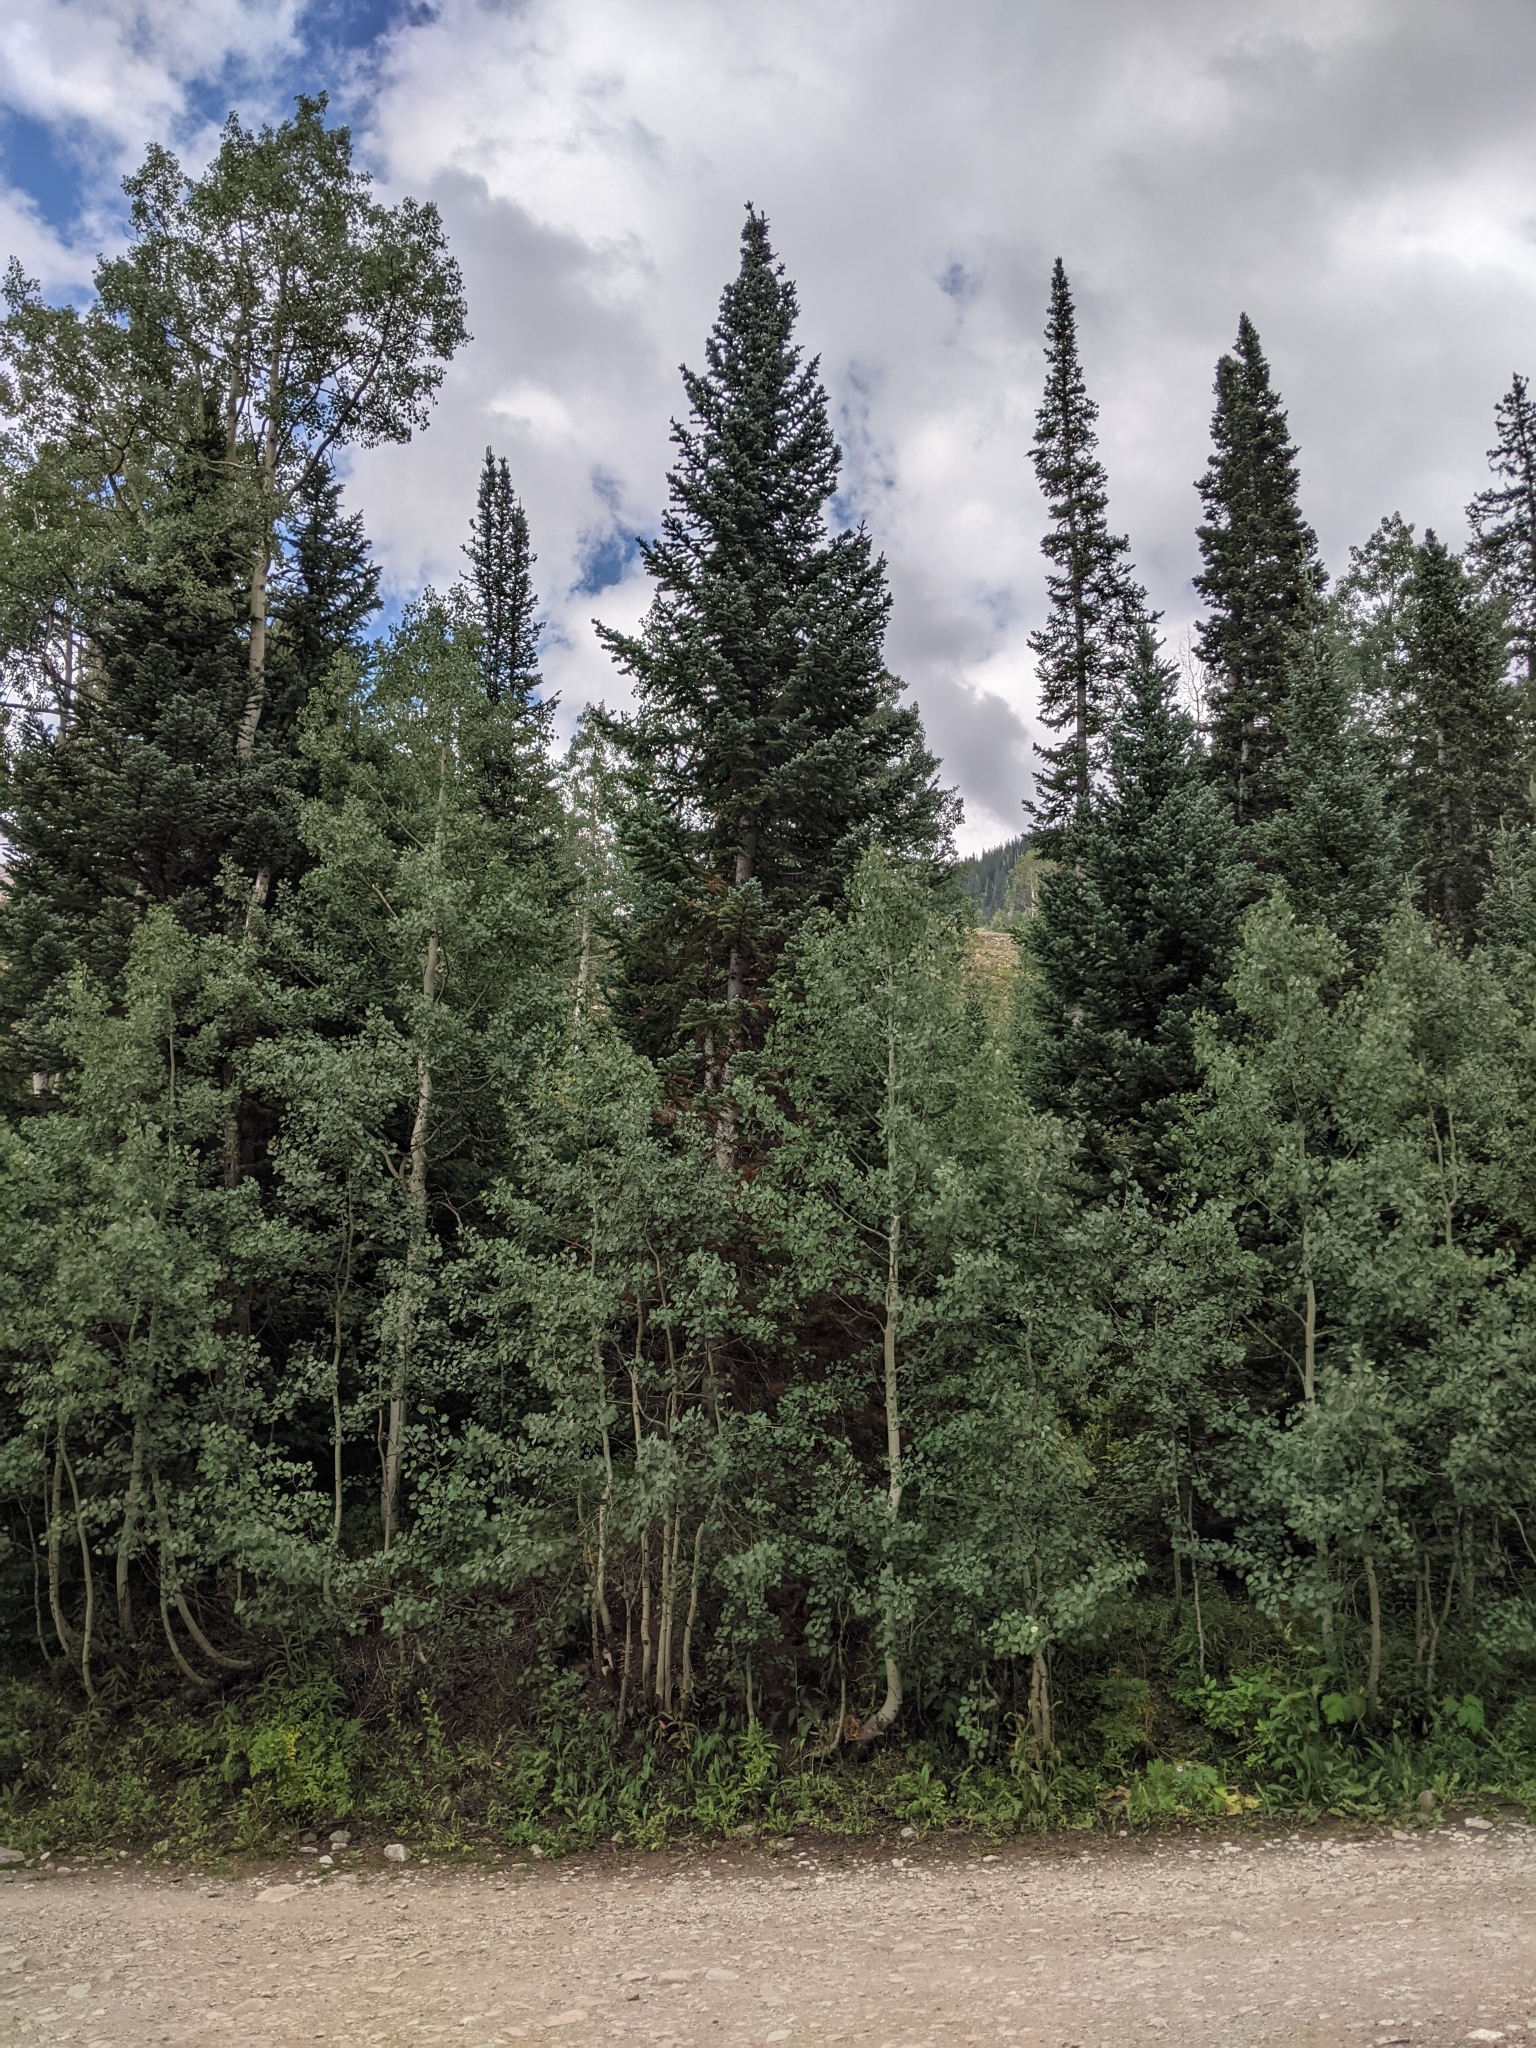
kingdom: Plantae
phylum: Tracheophyta
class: Magnoliopsida
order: Malpighiales
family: Salicaceae
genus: Populus
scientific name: Populus tremuloides
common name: Quaking aspen
